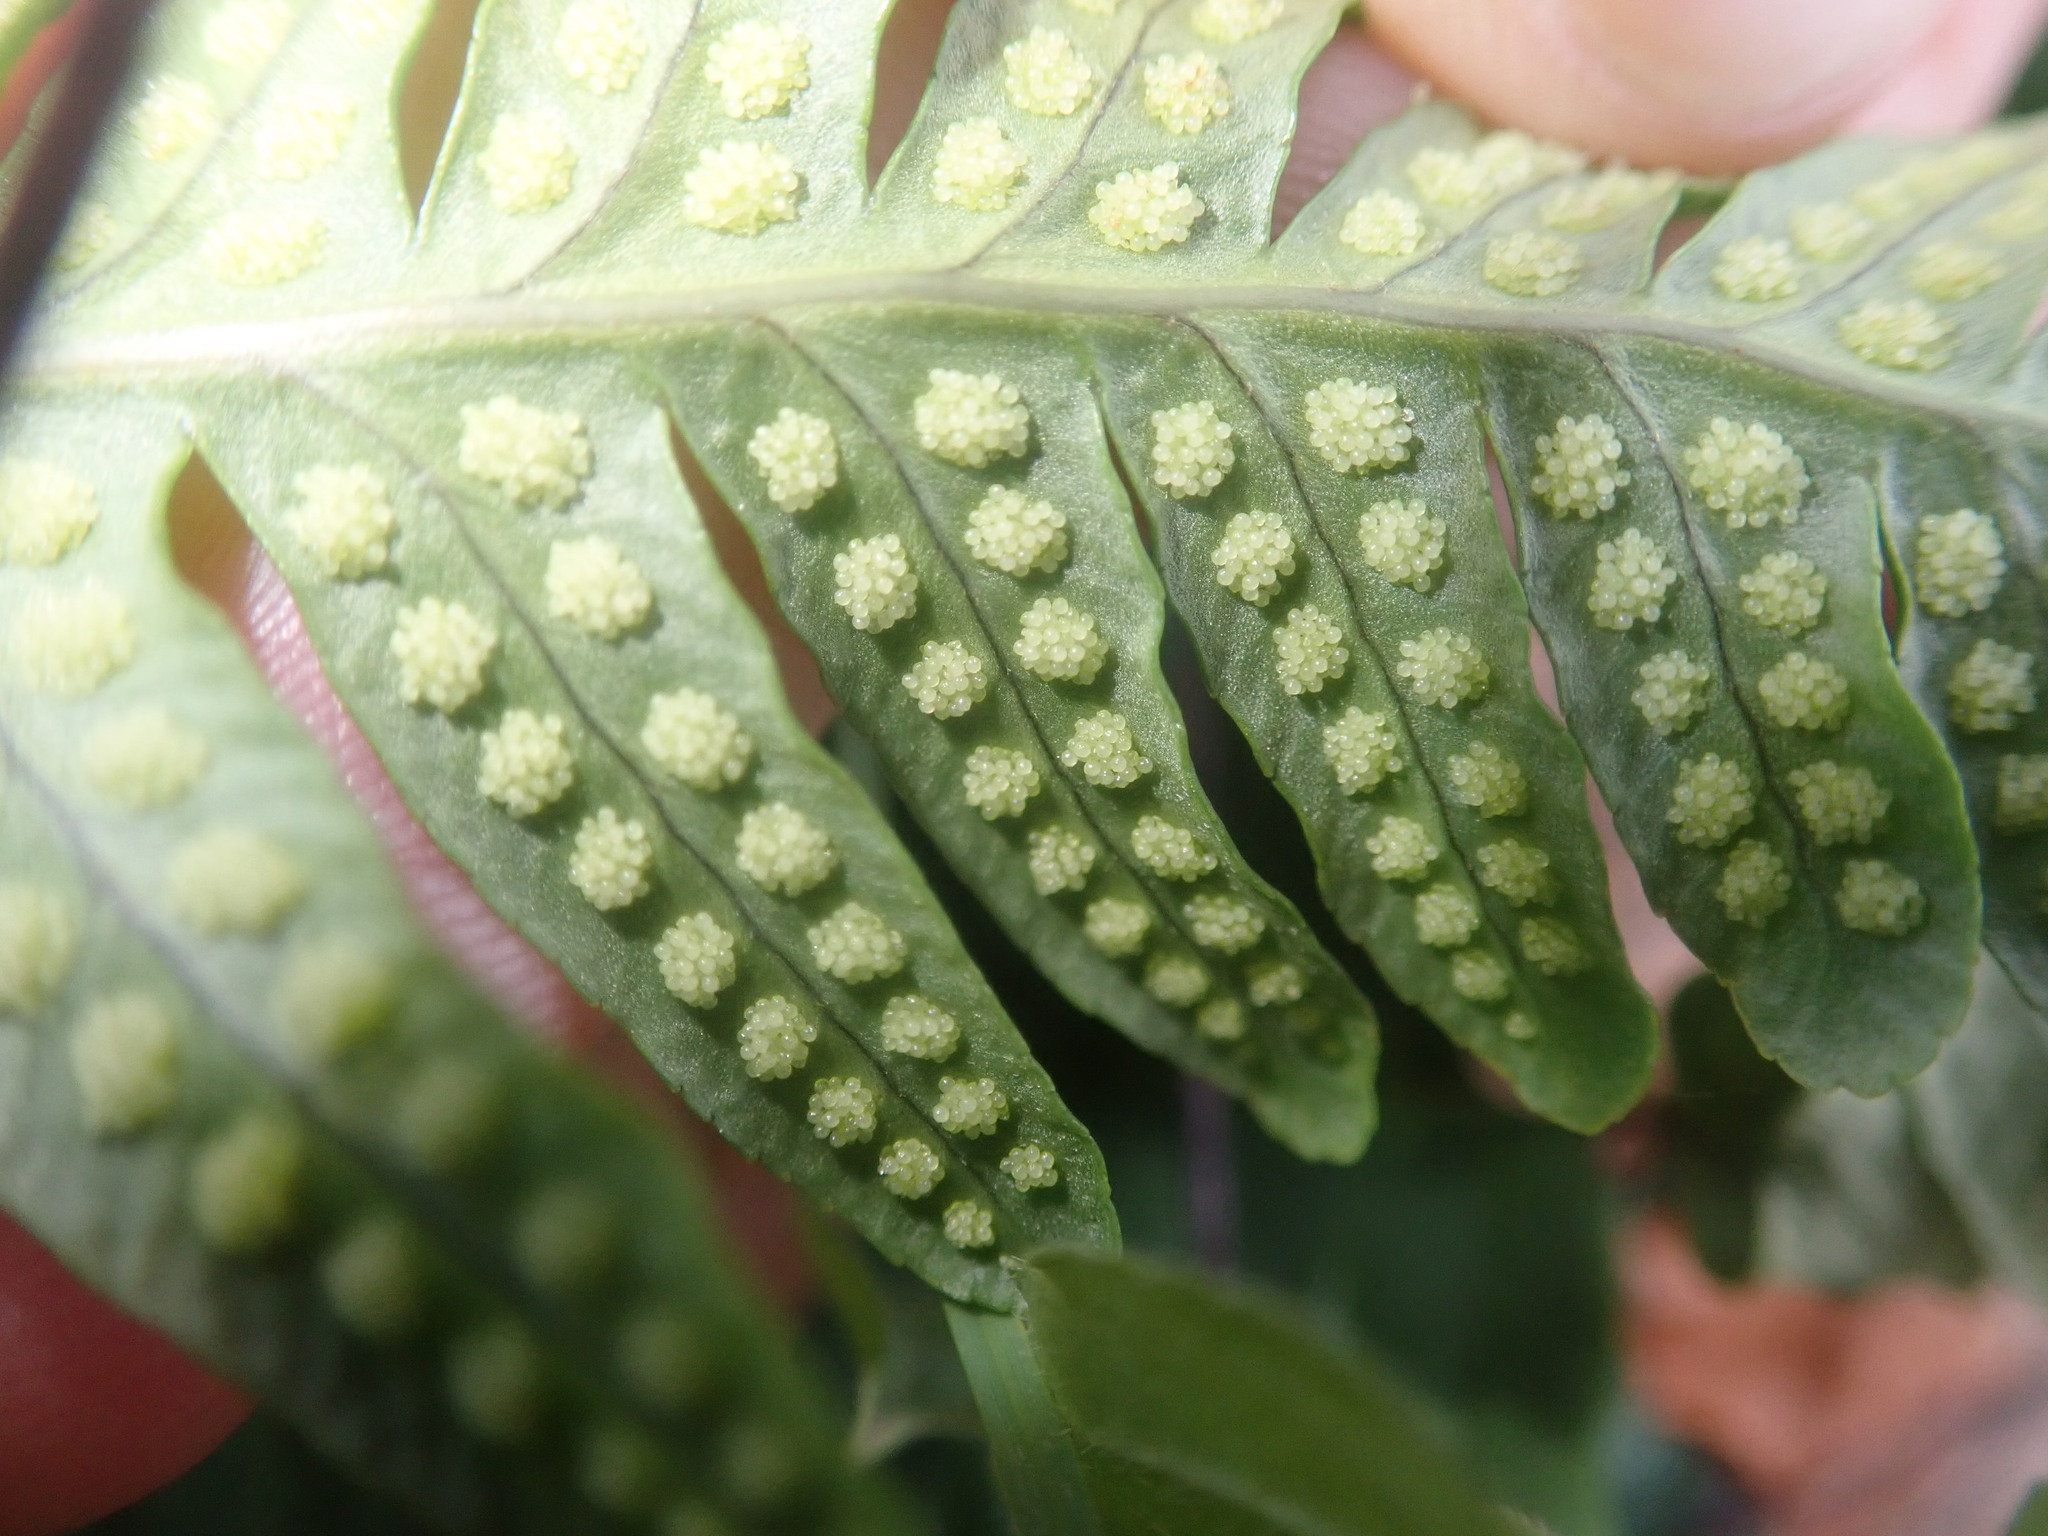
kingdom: Plantae
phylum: Tracheophyta
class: Polypodiopsida
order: Polypodiales
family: Polypodiaceae
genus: Polypodium
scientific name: Polypodium vulgare
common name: Common polypody
